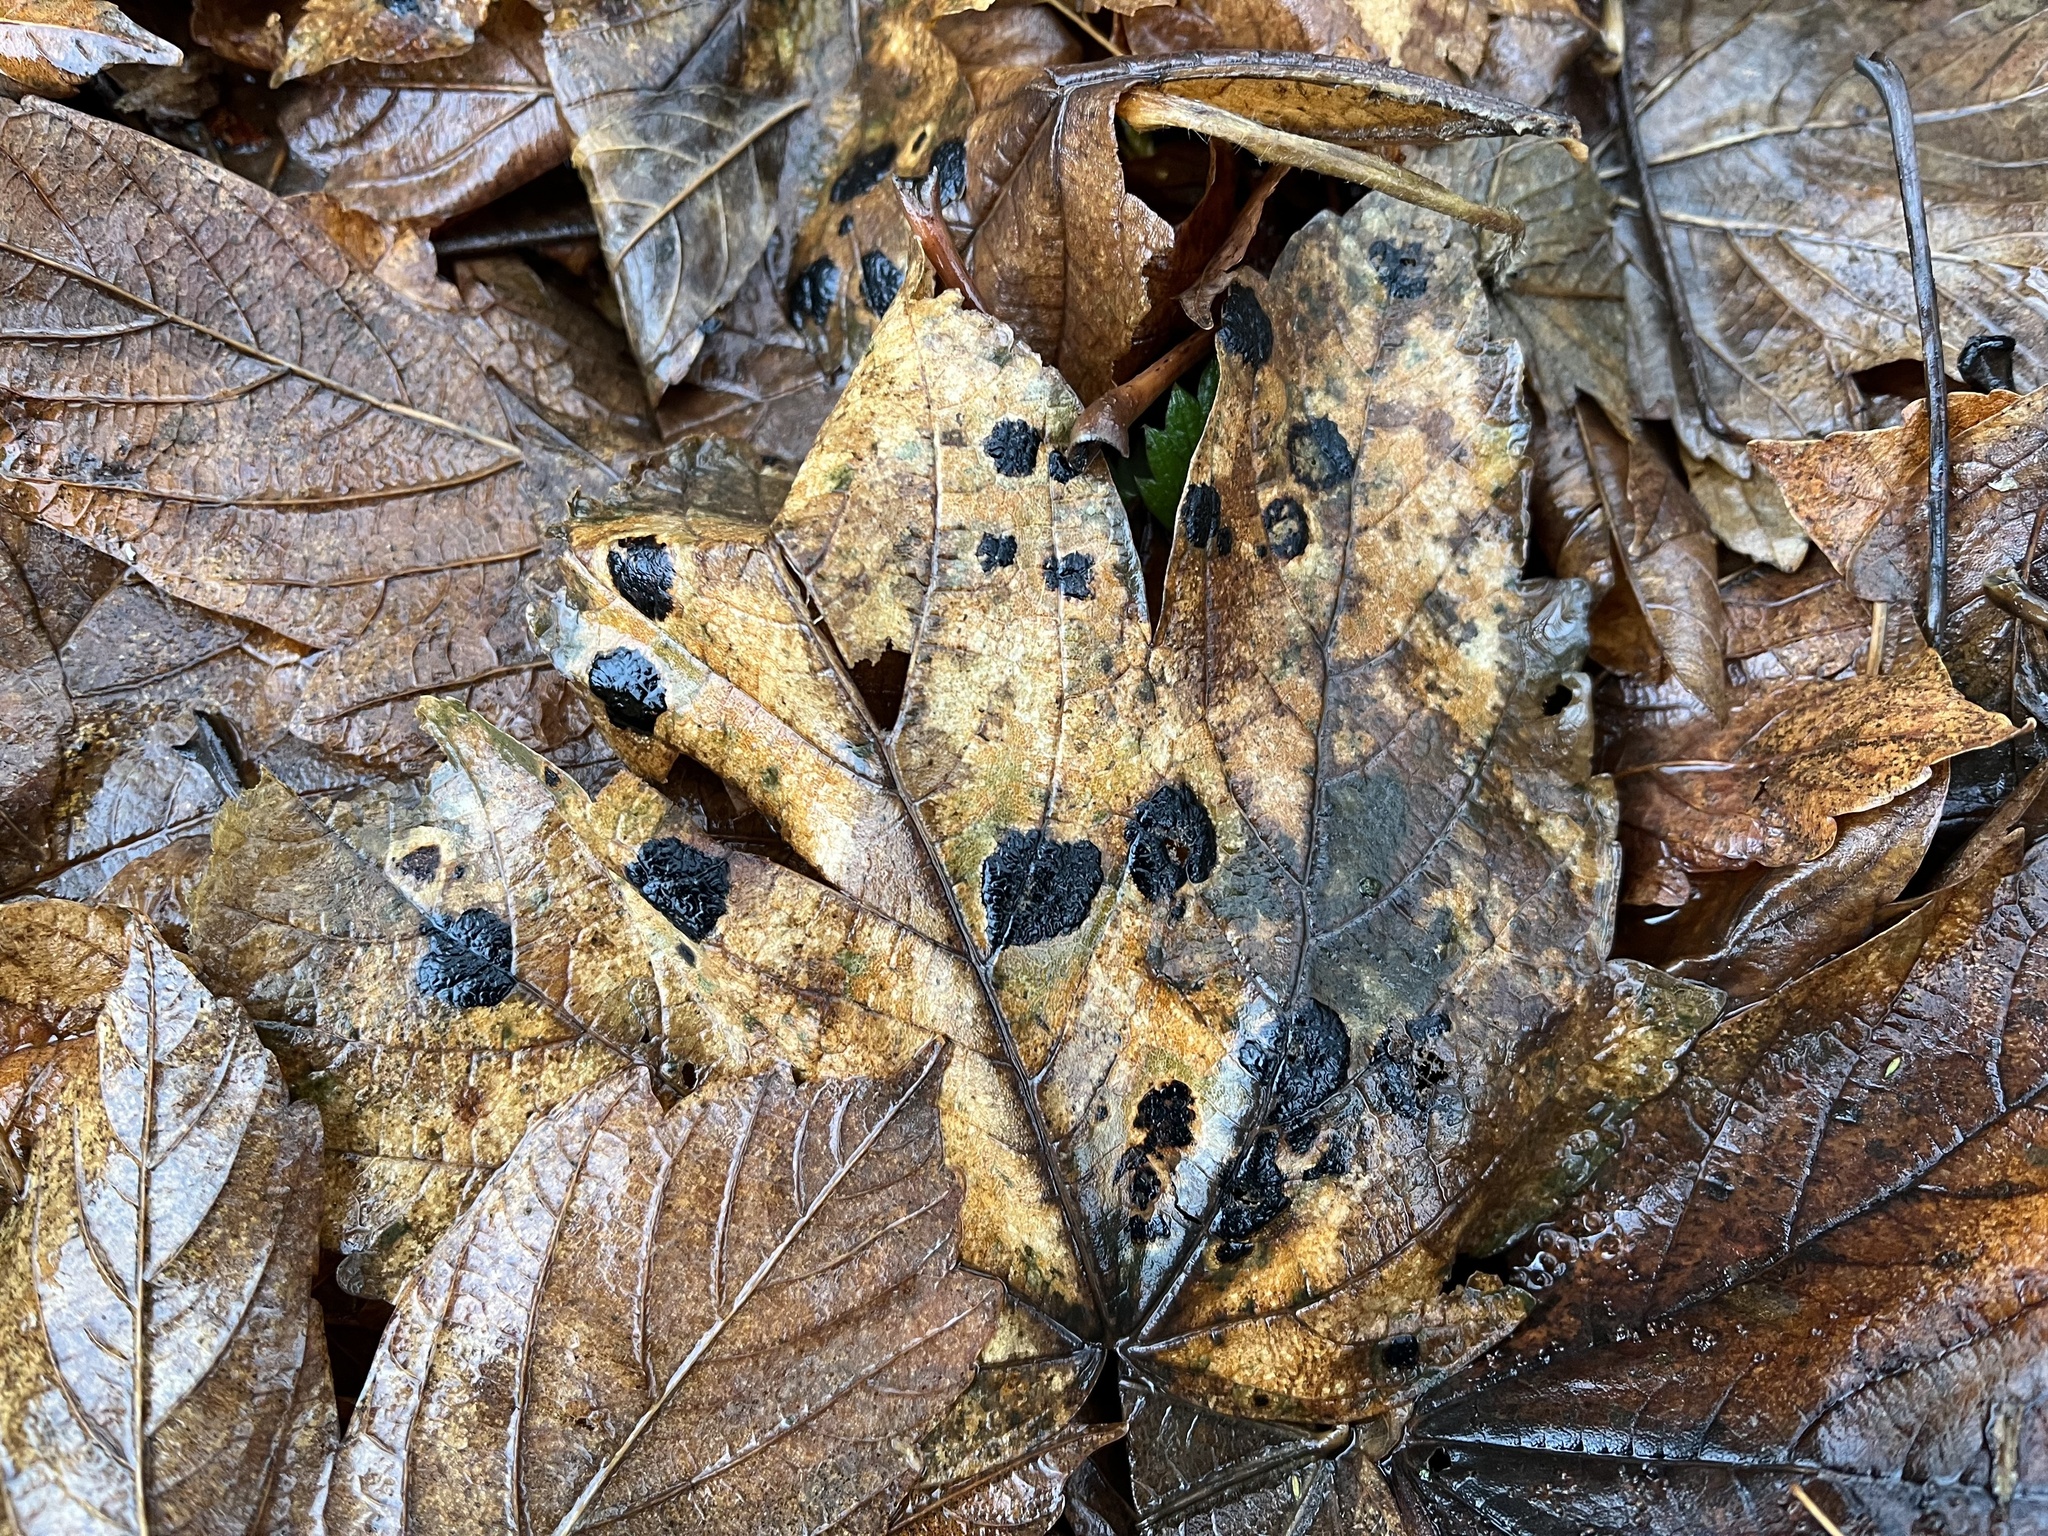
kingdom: Fungi
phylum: Ascomycota
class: Leotiomycetes
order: Rhytismatales
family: Rhytismataceae
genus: Rhytisma
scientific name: Rhytisma acerinum
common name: European tar spot
